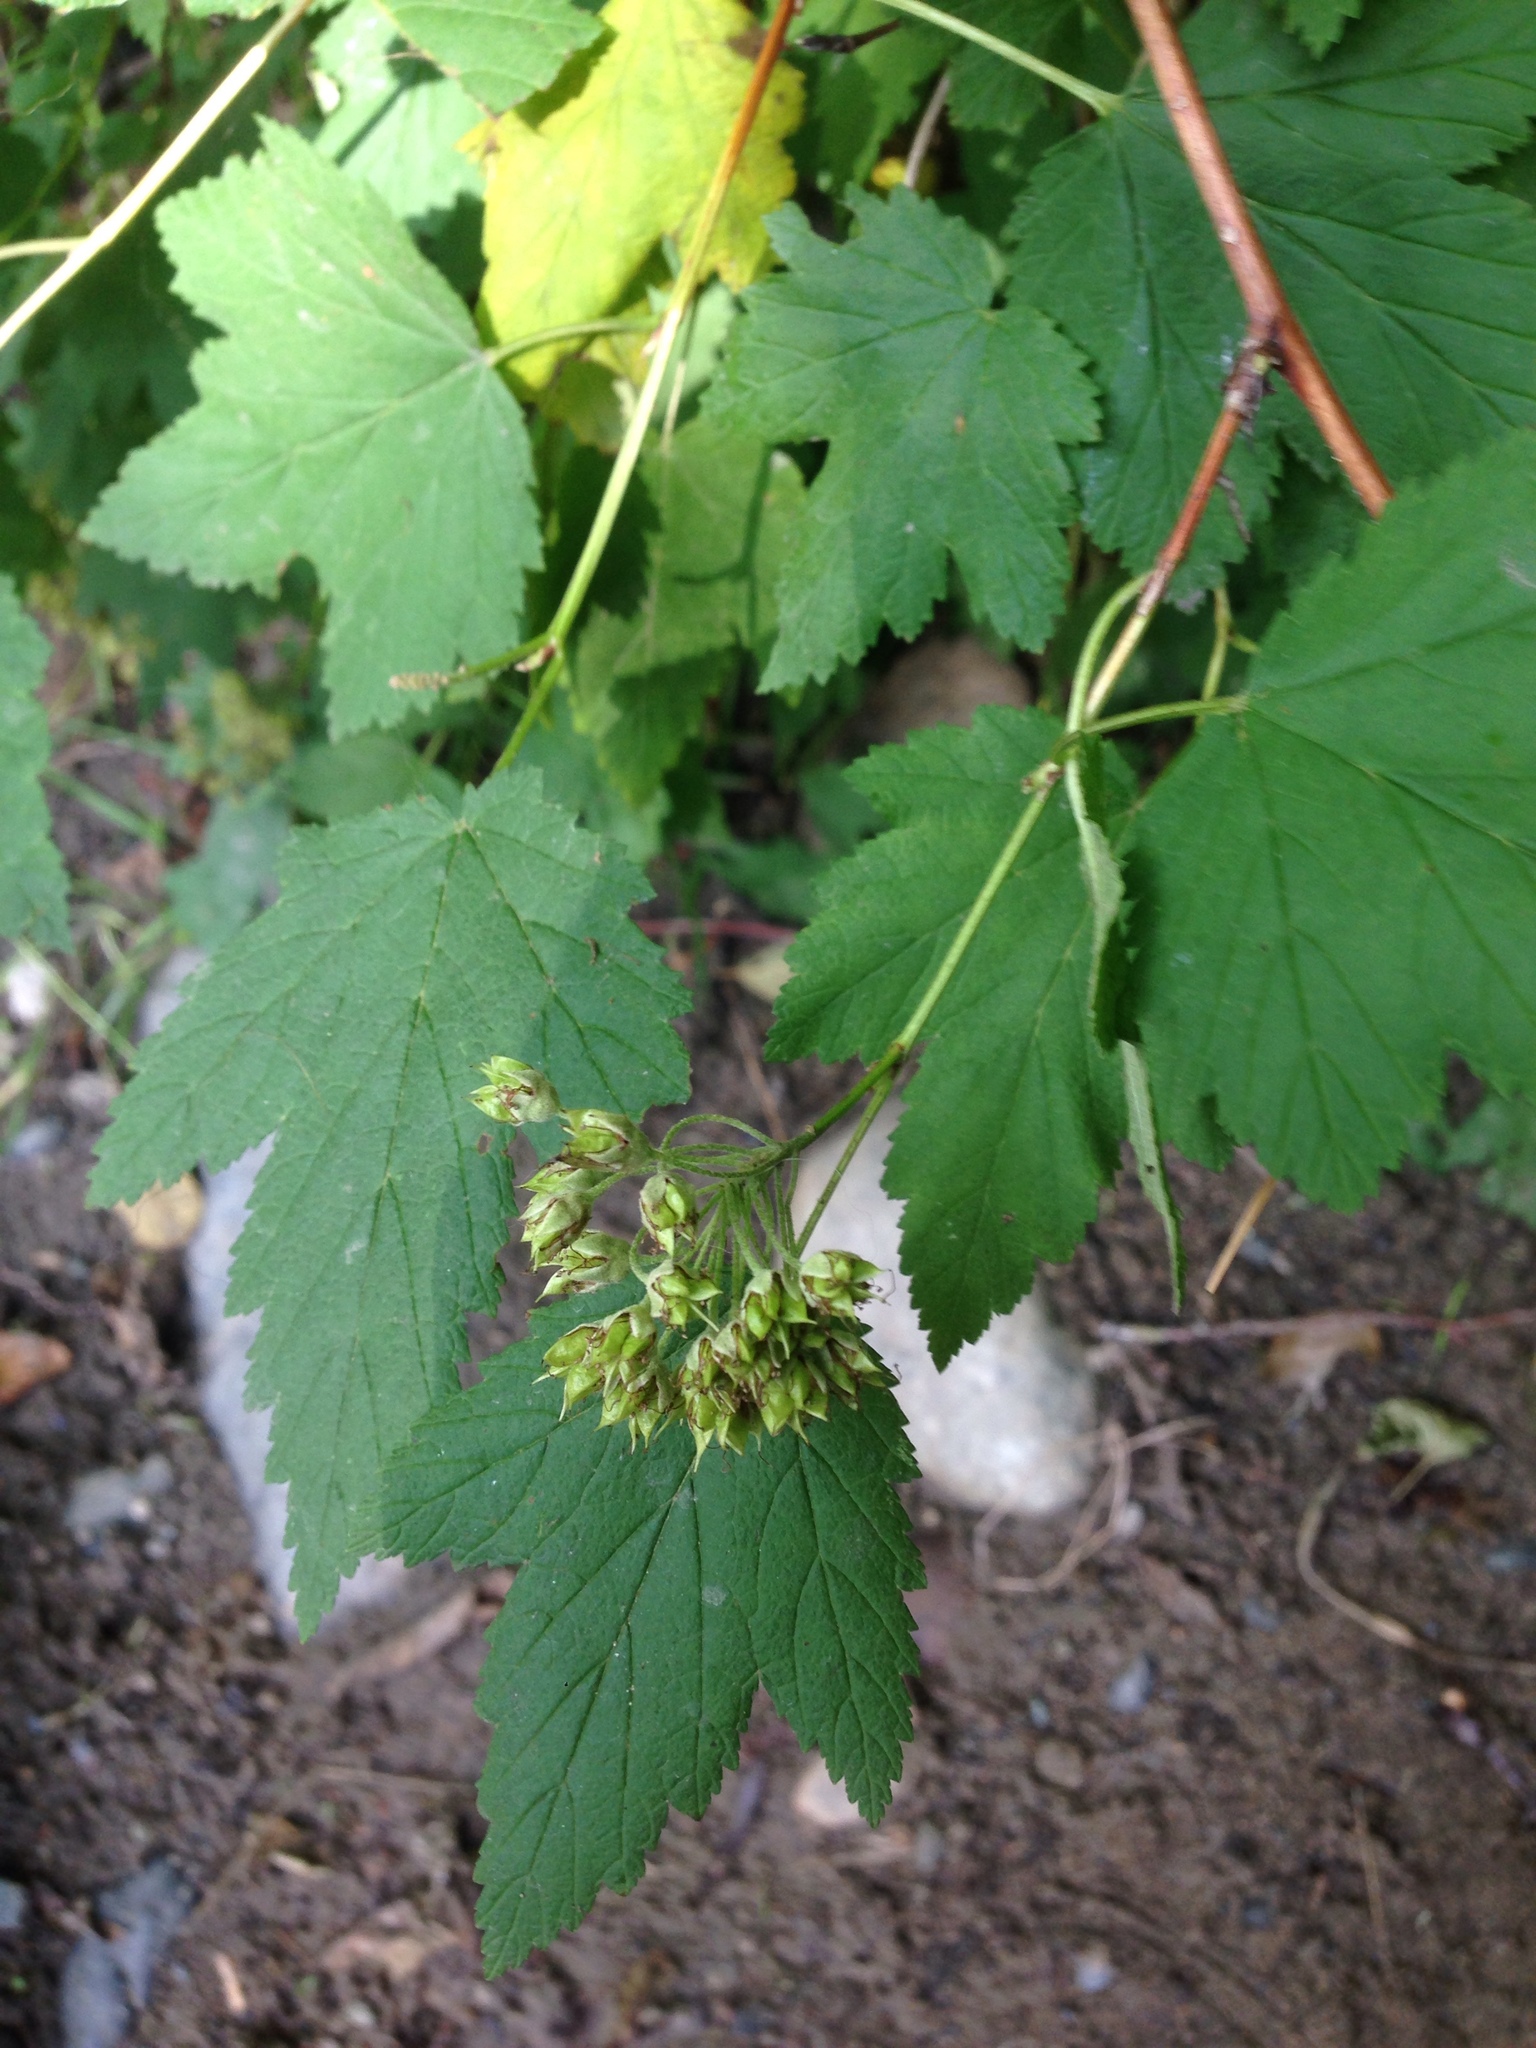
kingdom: Plantae
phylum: Tracheophyta
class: Magnoliopsida
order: Rosales
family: Rosaceae
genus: Physocarpus
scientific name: Physocarpus capitatus
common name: Pacific ninebark
